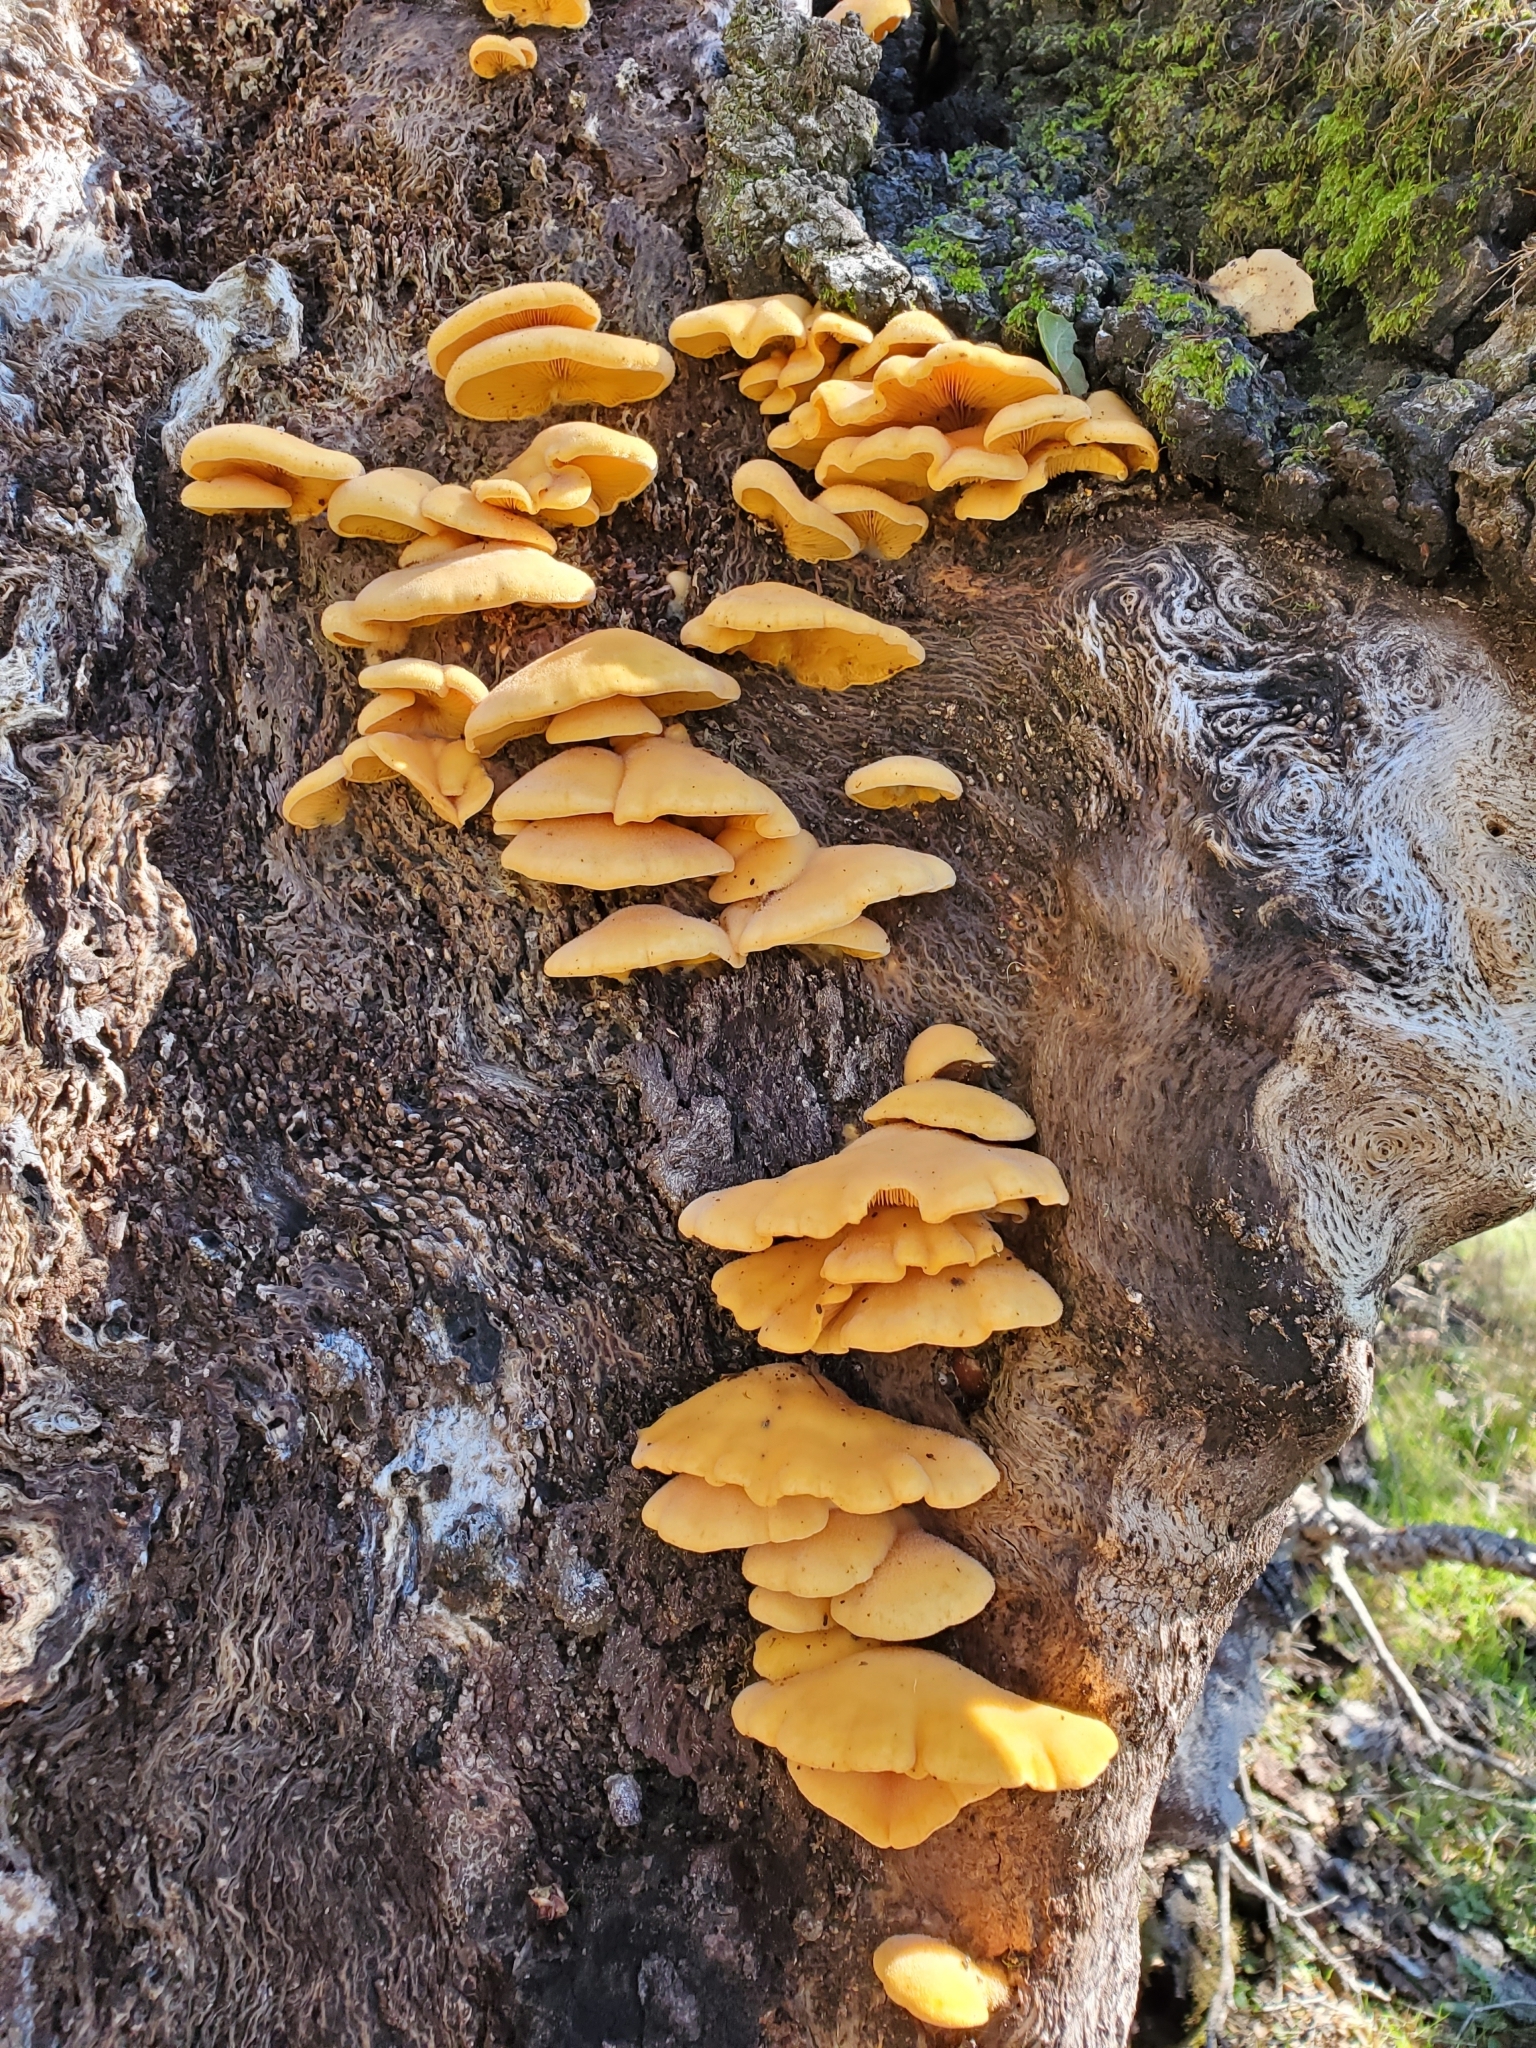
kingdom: Fungi
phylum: Basidiomycota
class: Agaricomycetes
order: Agaricales
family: Phyllotopsidaceae
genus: Phyllotopsis
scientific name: Phyllotopsis nidulans
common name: Orange mock oyster
